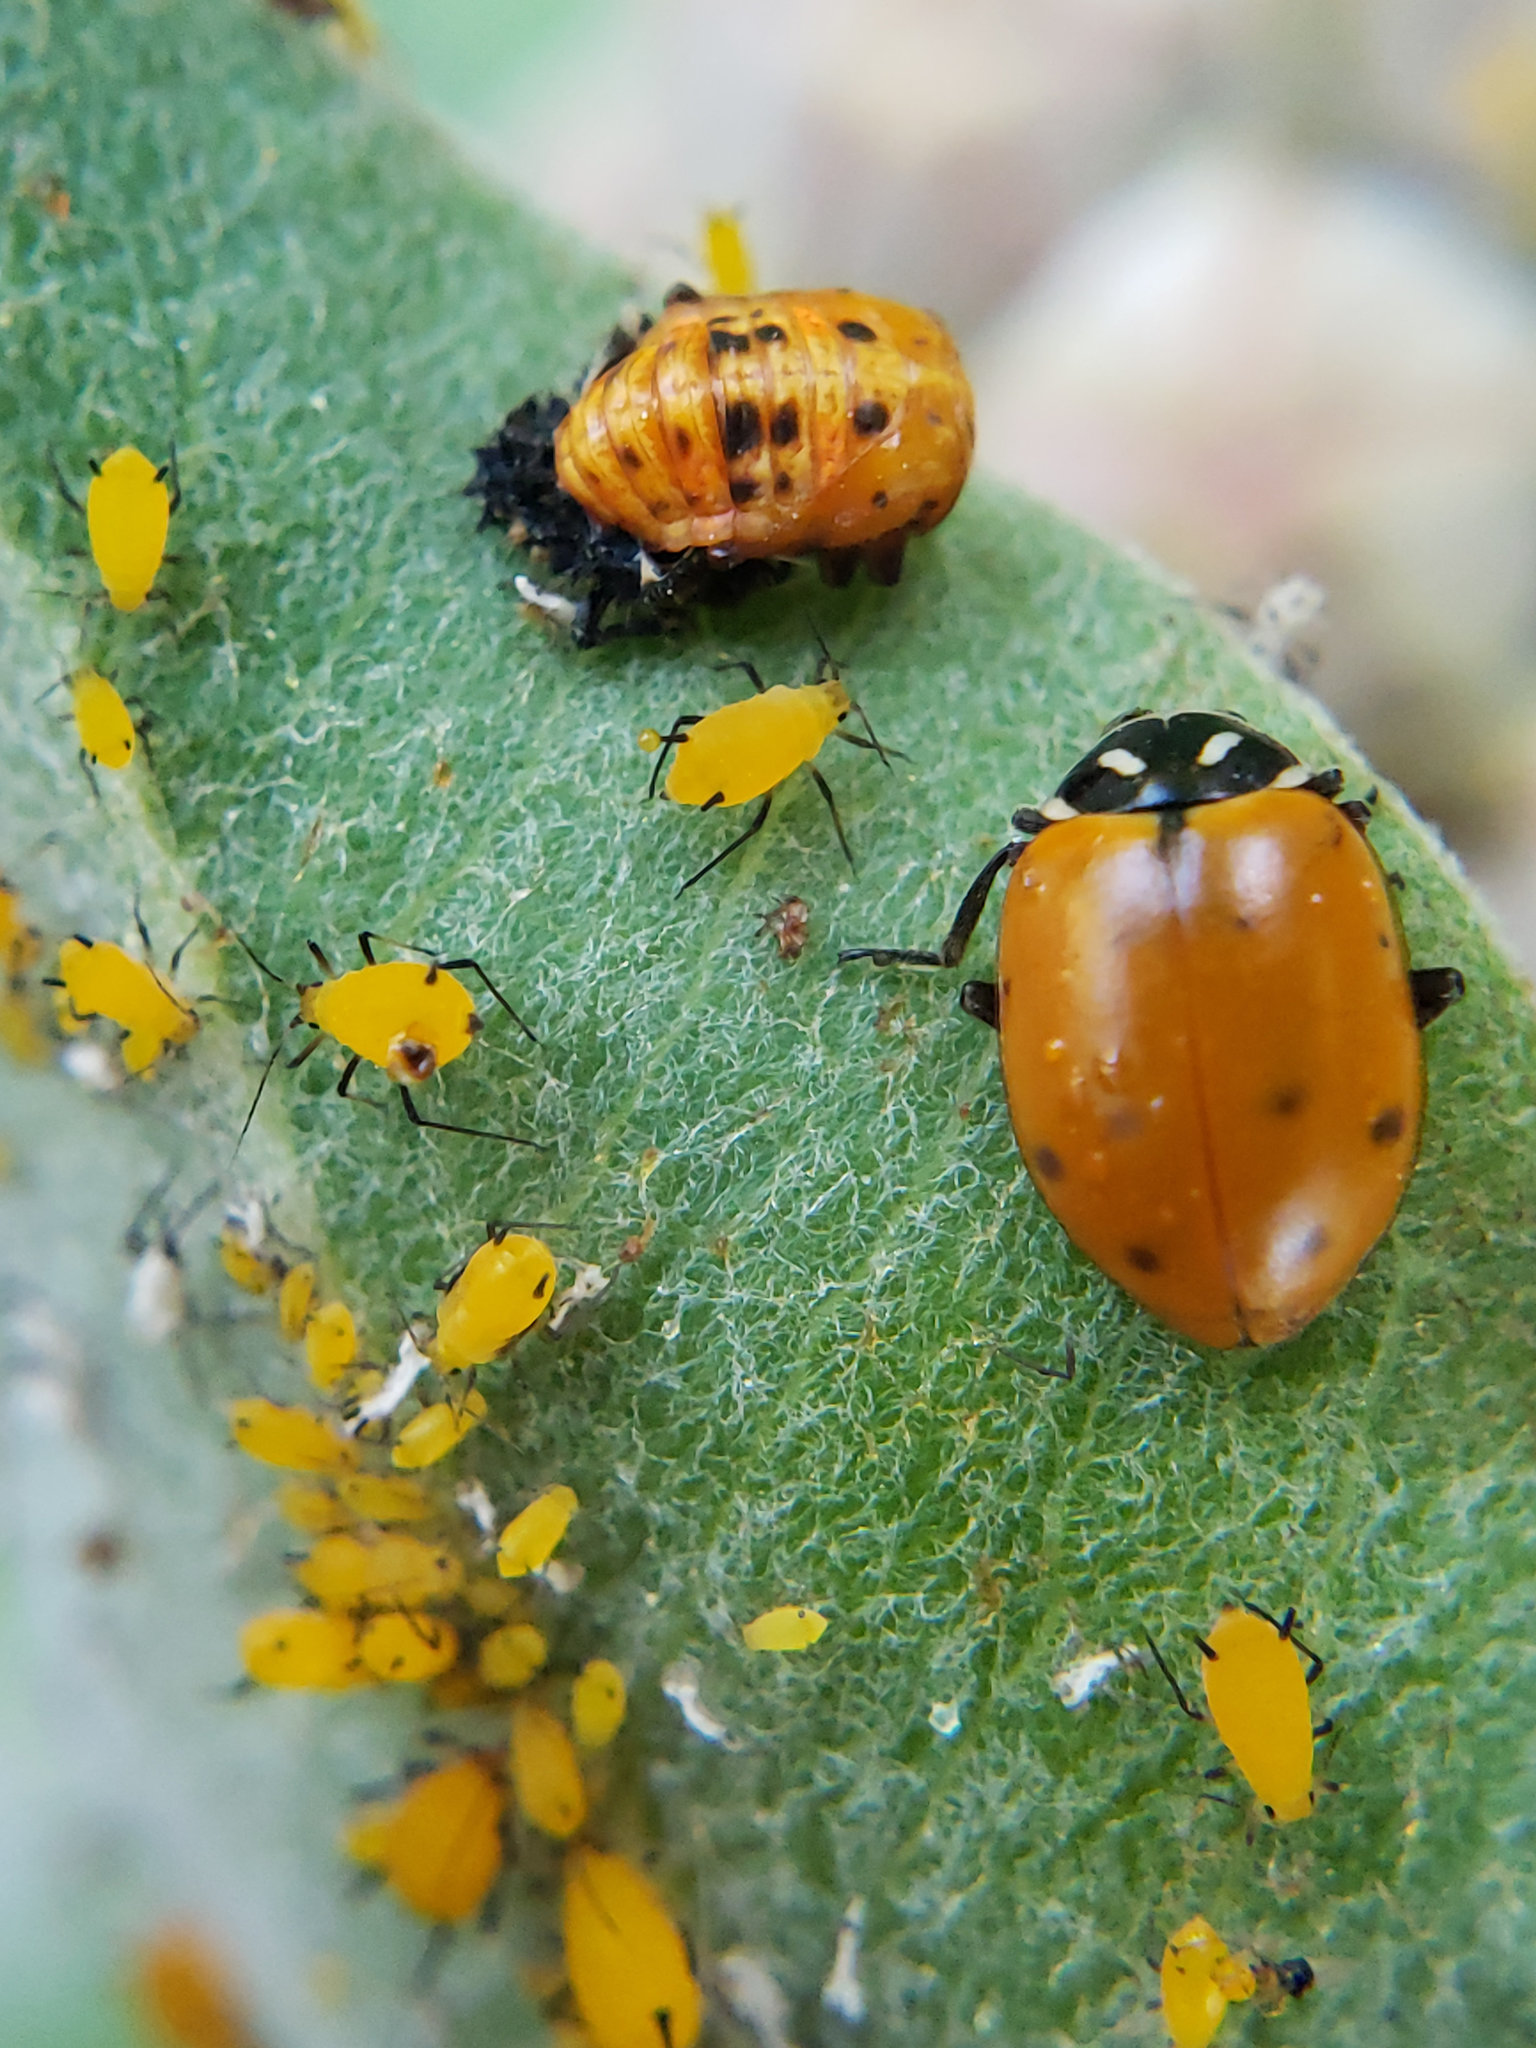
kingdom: Animalia
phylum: Arthropoda
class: Insecta
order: Coleoptera
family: Coccinellidae
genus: Hippodamia
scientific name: Hippodamia convergens
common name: Convergent lady beetle
